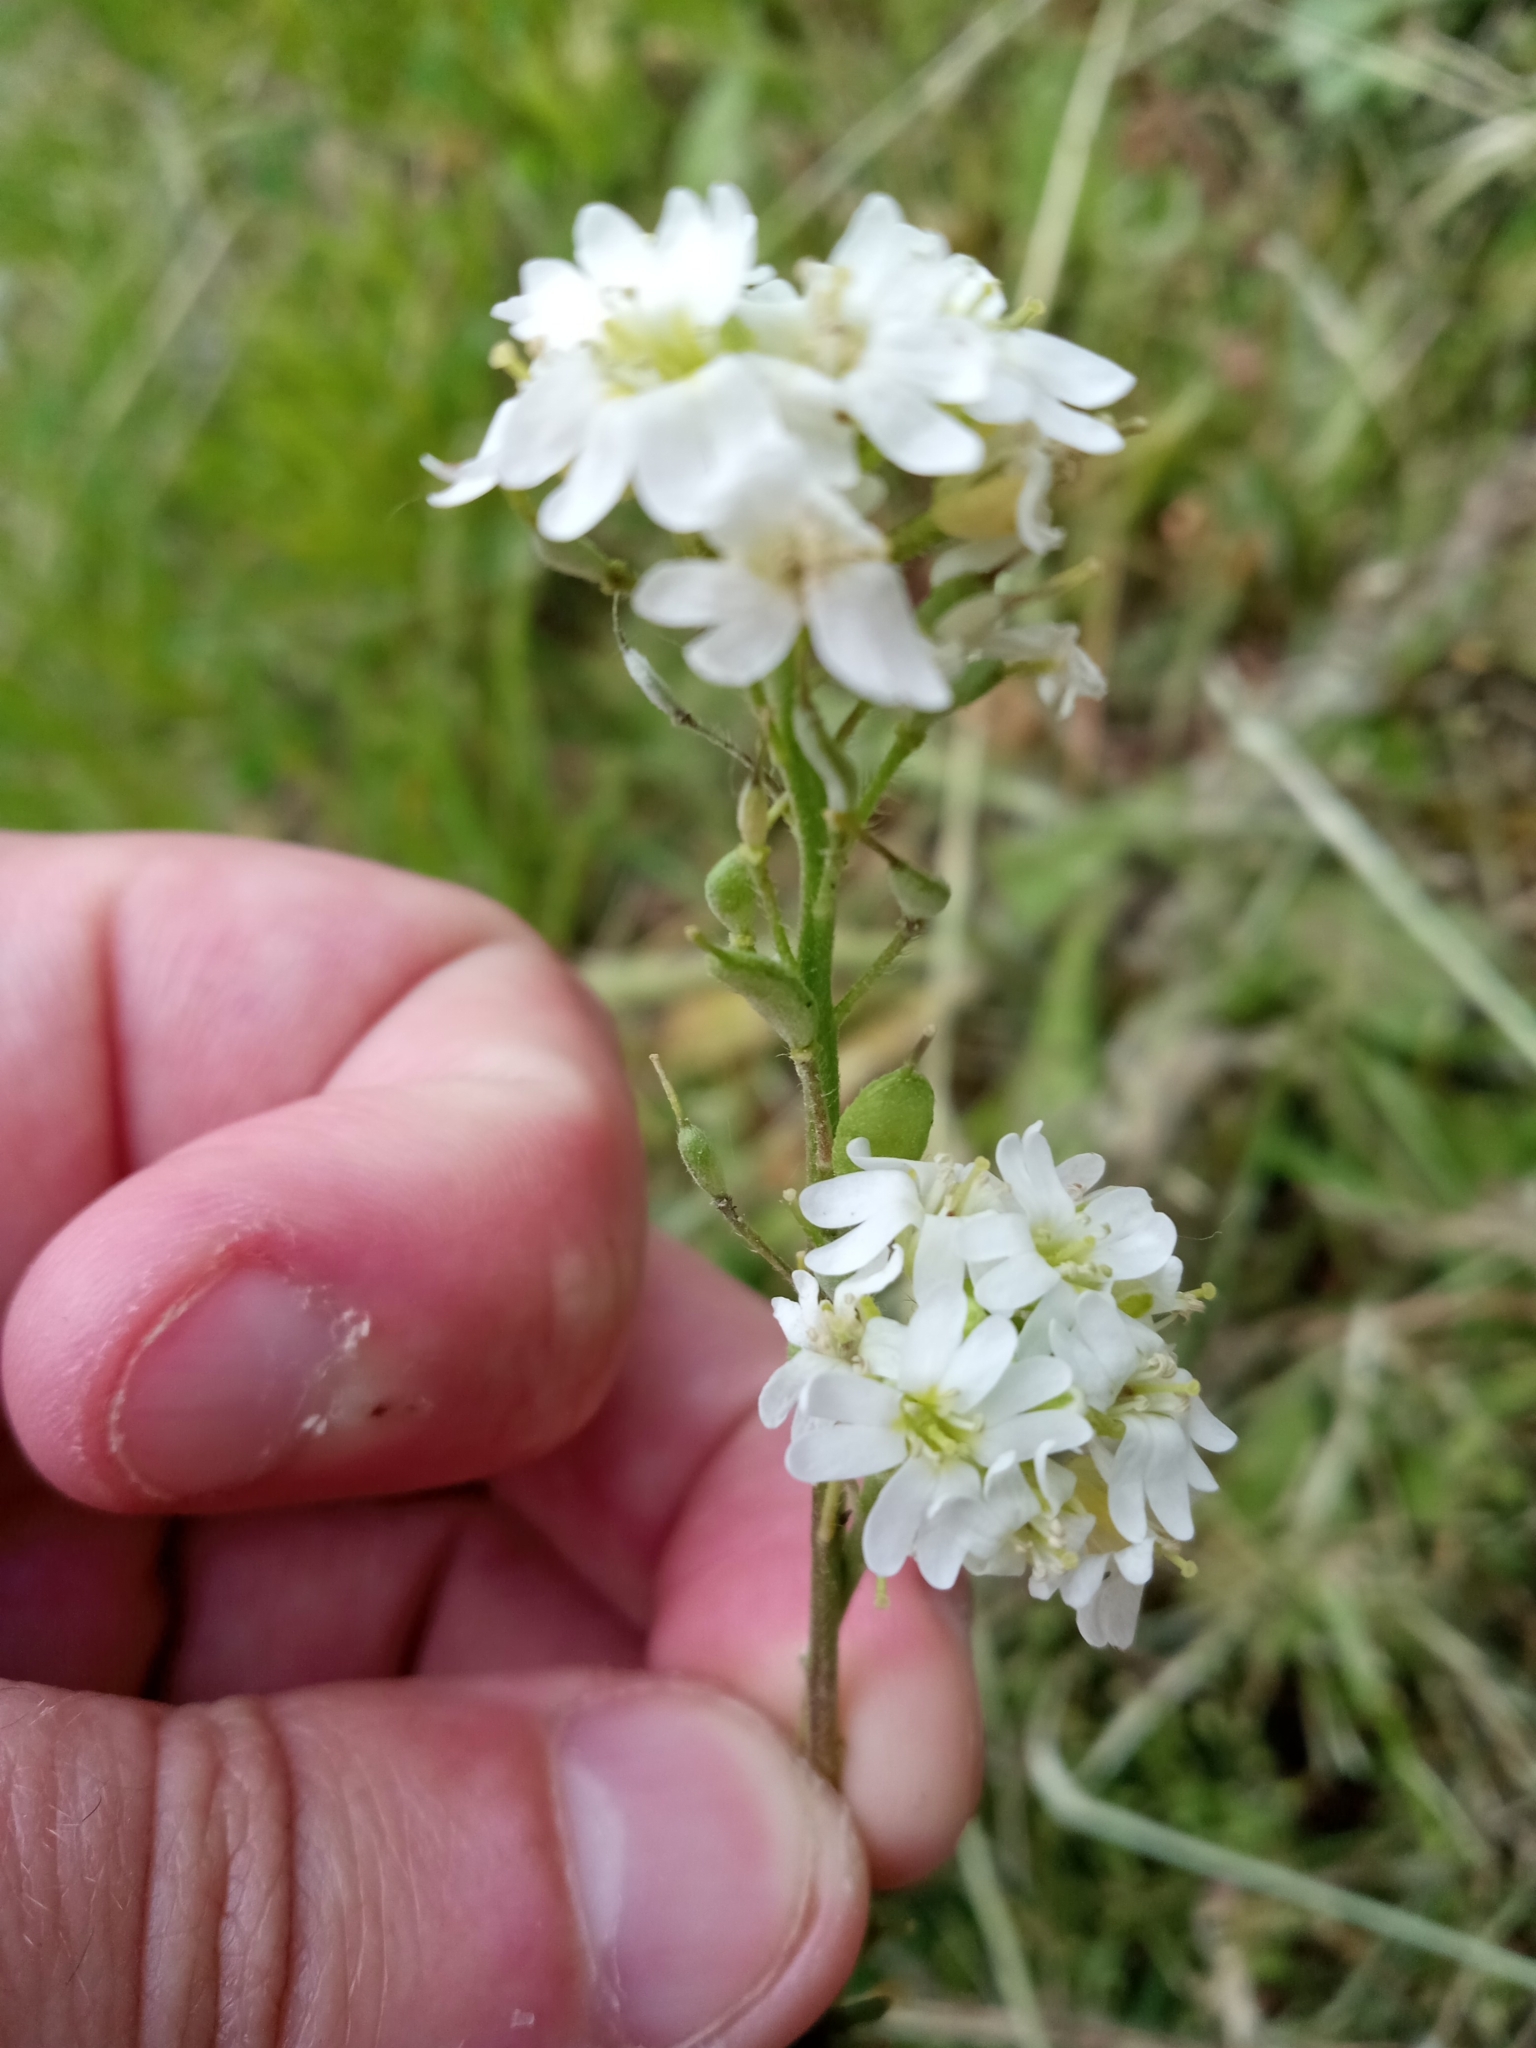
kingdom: Plantae
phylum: Tracheophyta
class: Magnoliopsida
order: Brassicales
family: Brassicaceae
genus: Berteroa
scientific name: Berteroa incana
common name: Hoary alison
